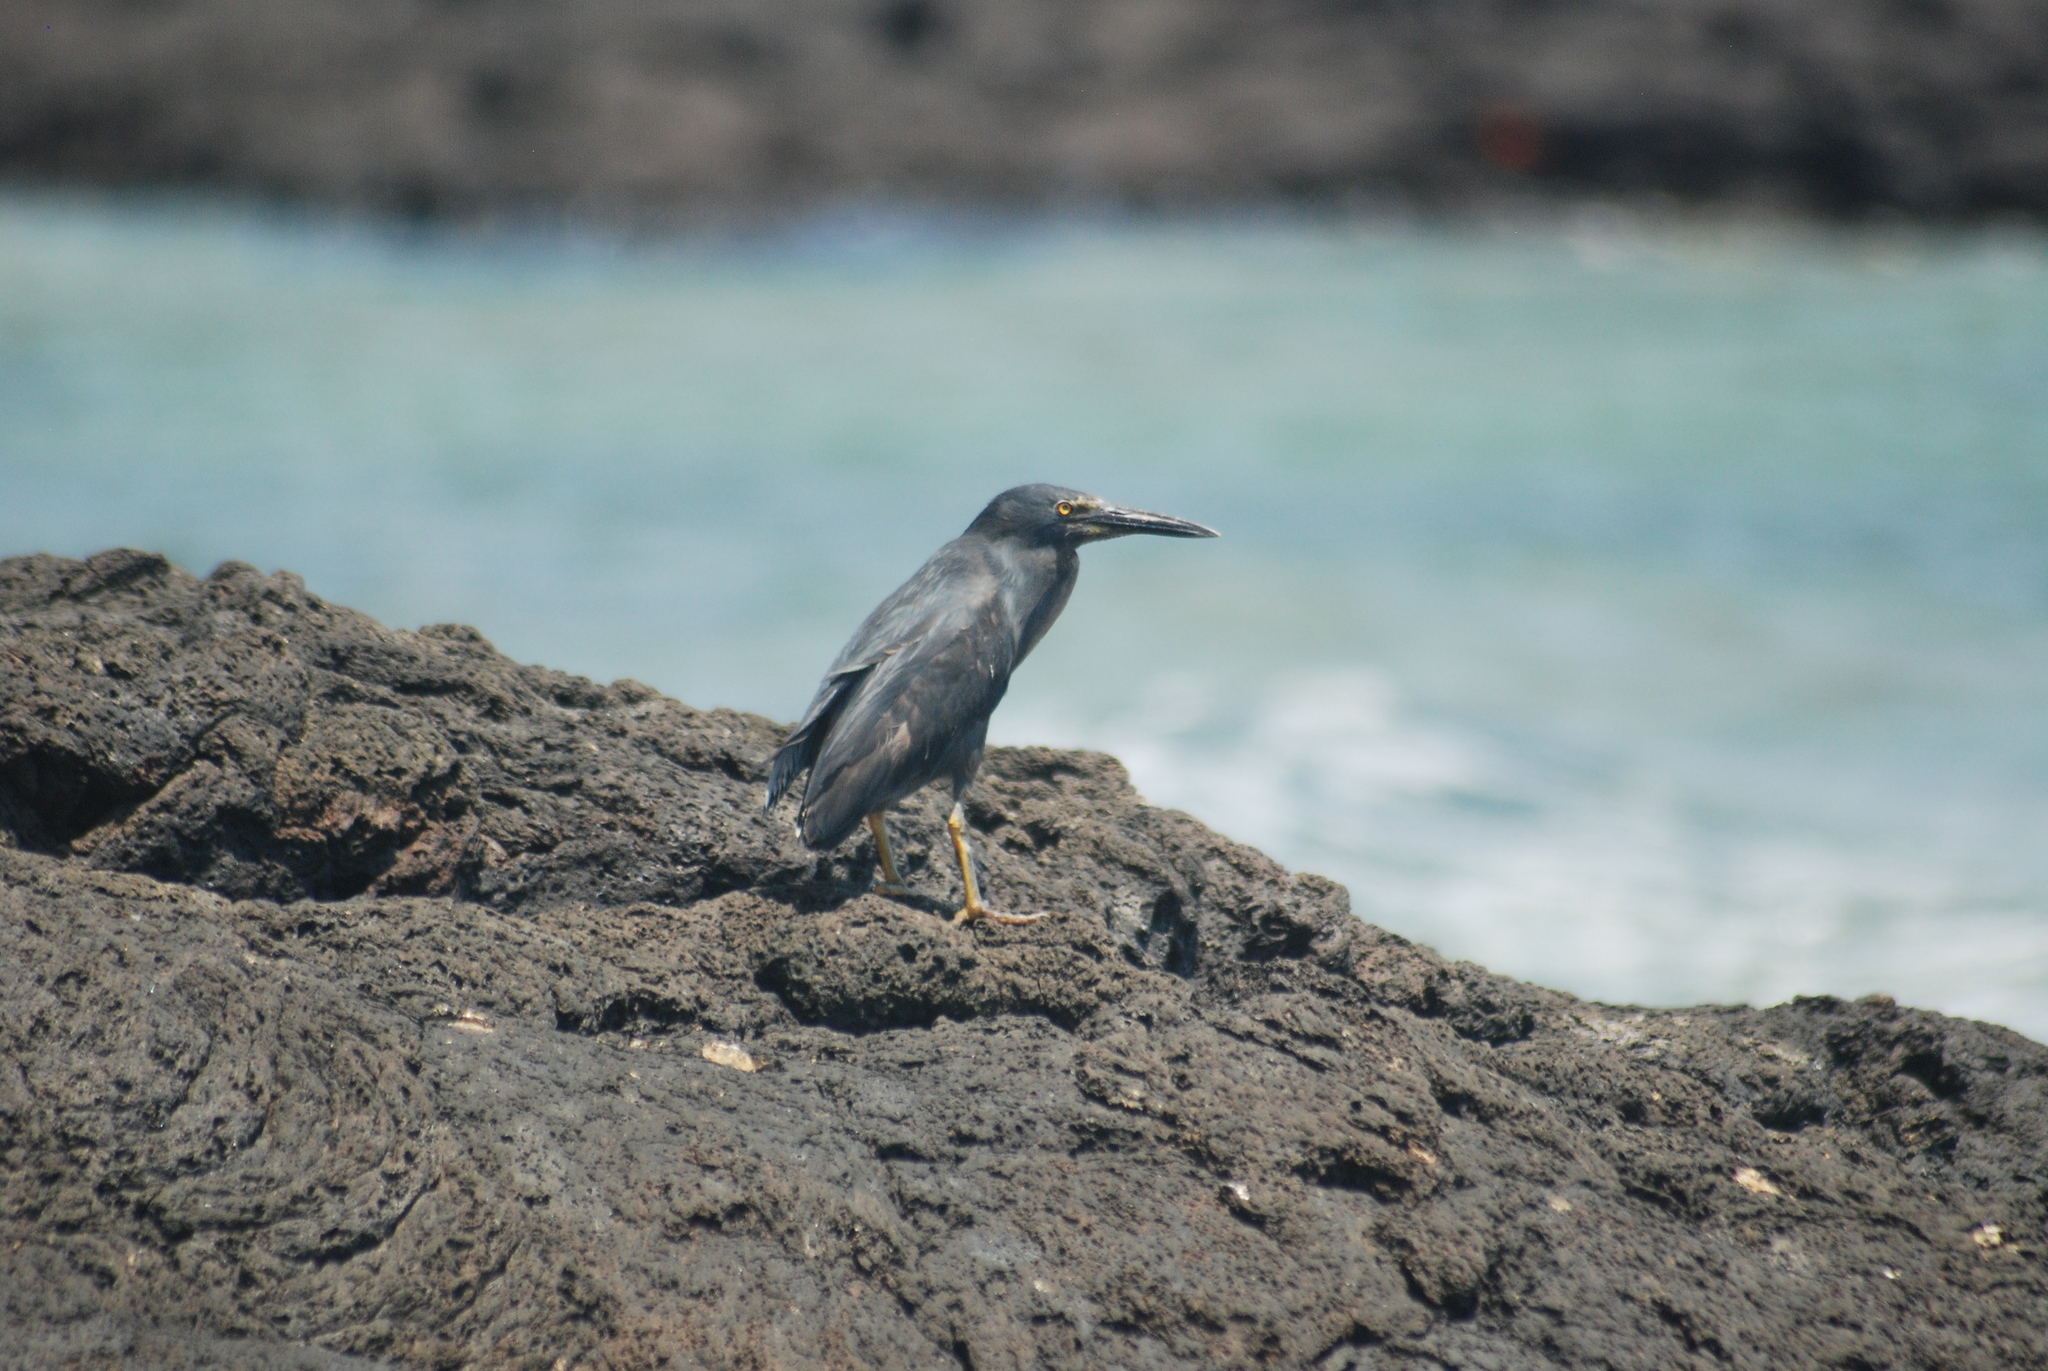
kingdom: Animalia
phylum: Chordata
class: Aves
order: Pelecaniformes
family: Ardeidae
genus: Butorides
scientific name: Butorides striata
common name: Striated heron
